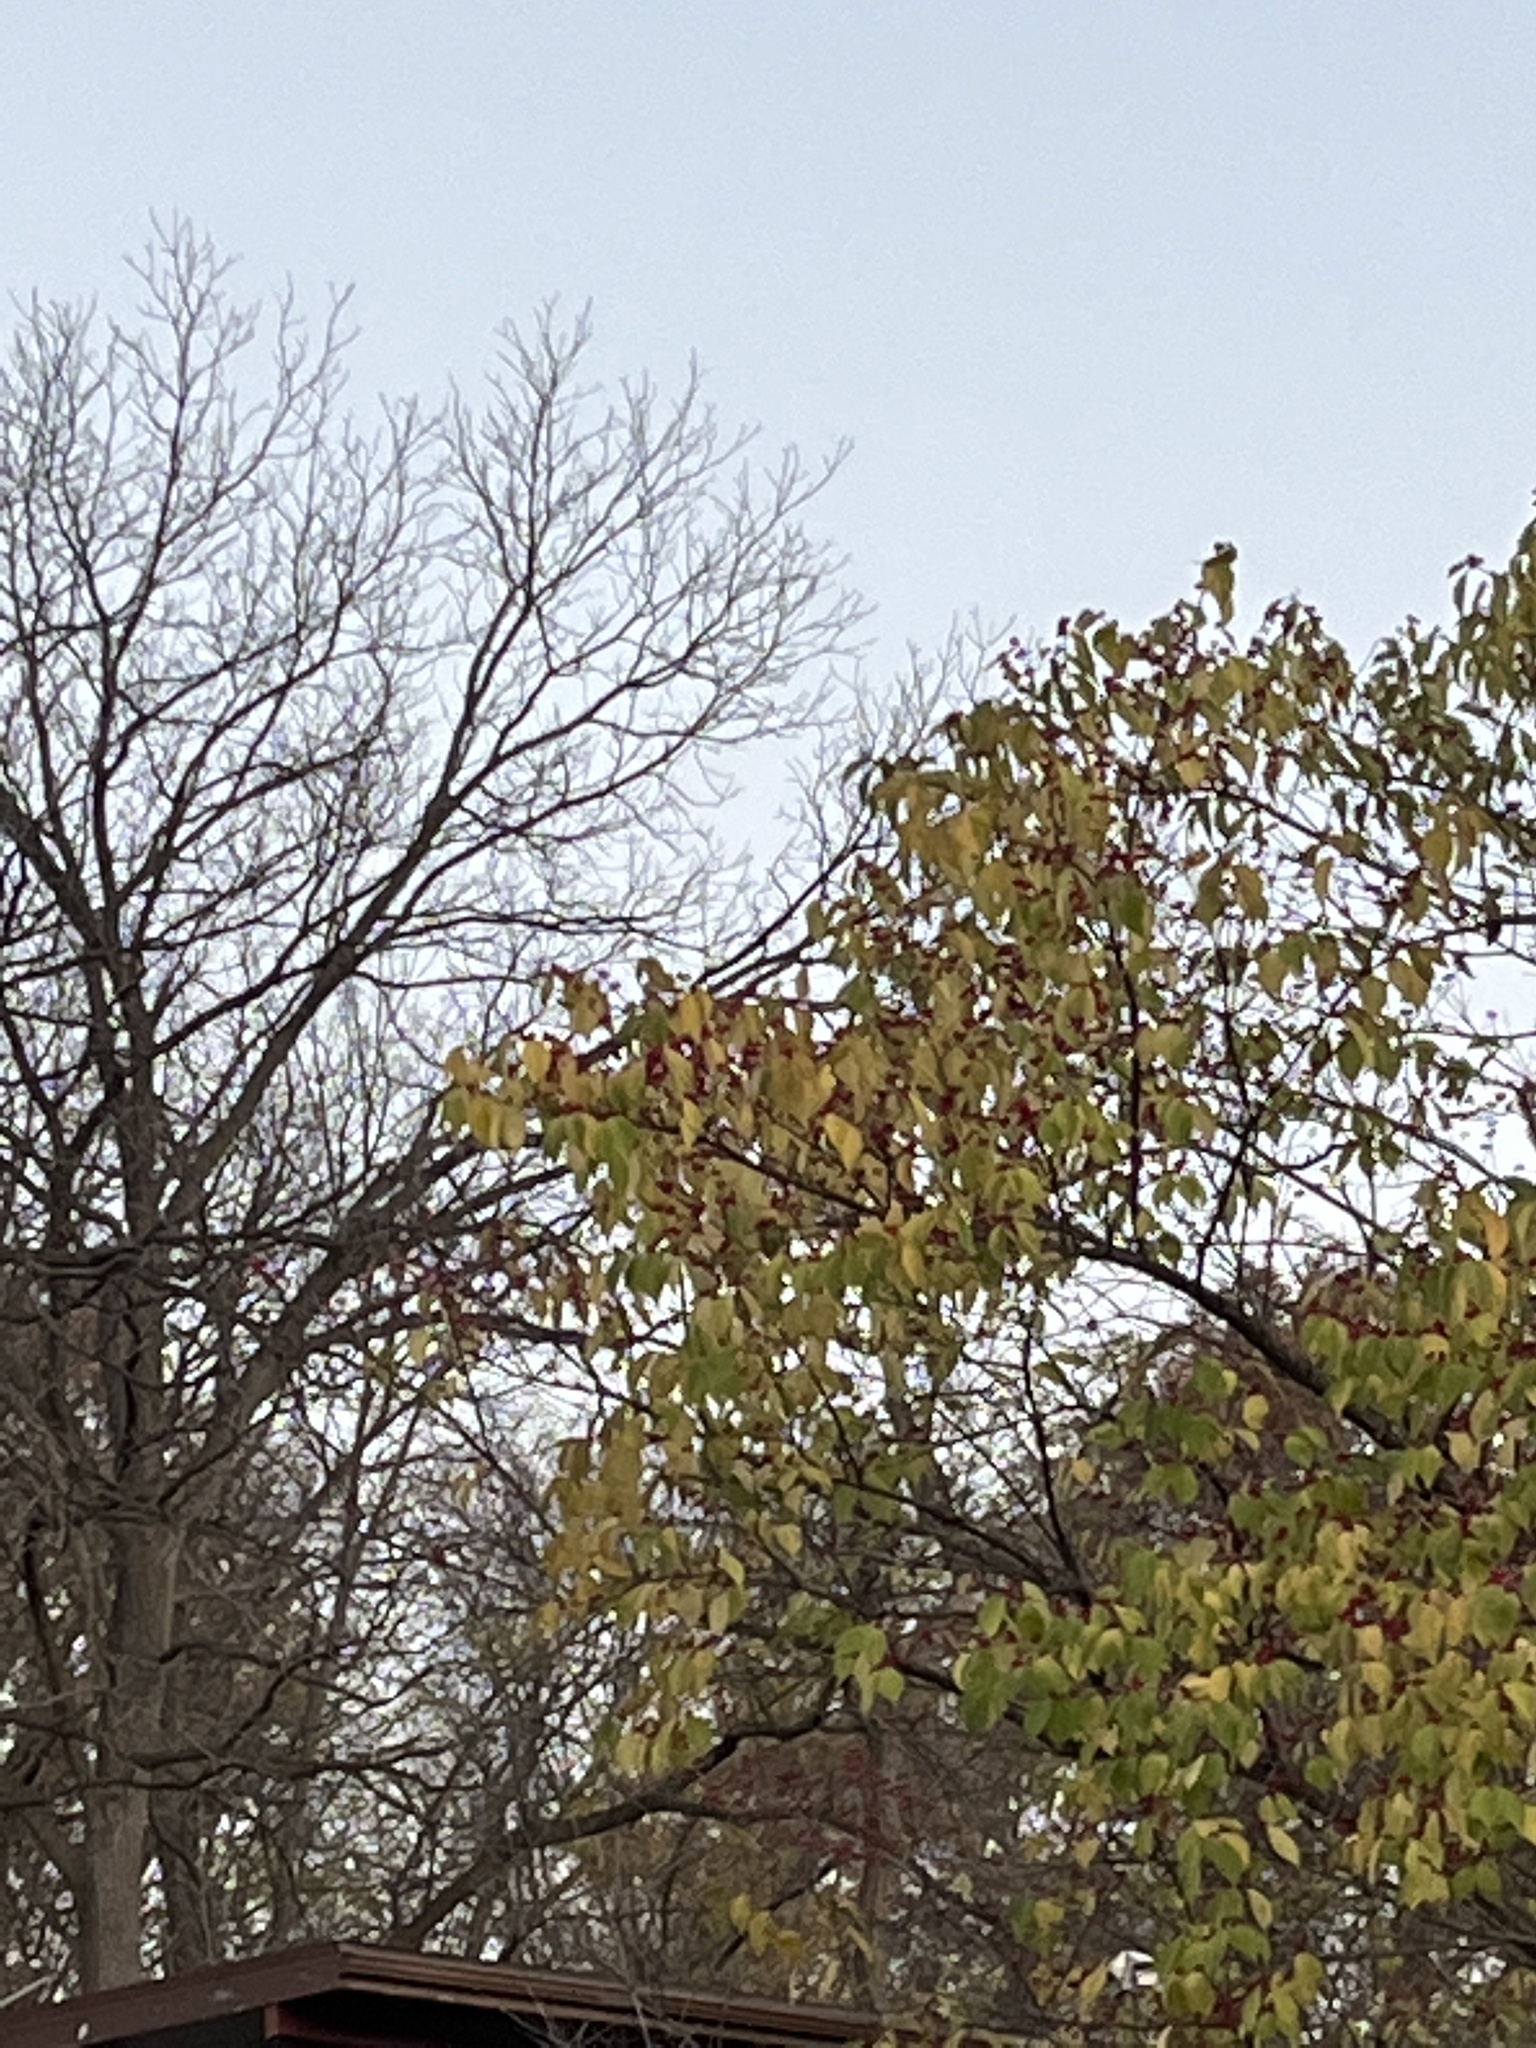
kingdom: Plantae
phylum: Tracheophyta
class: Magnoliopsida
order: Dipsacales
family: Caprifoliaceae
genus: Lonicera
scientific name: Lonicera maackii
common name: Amur honeysuckle
